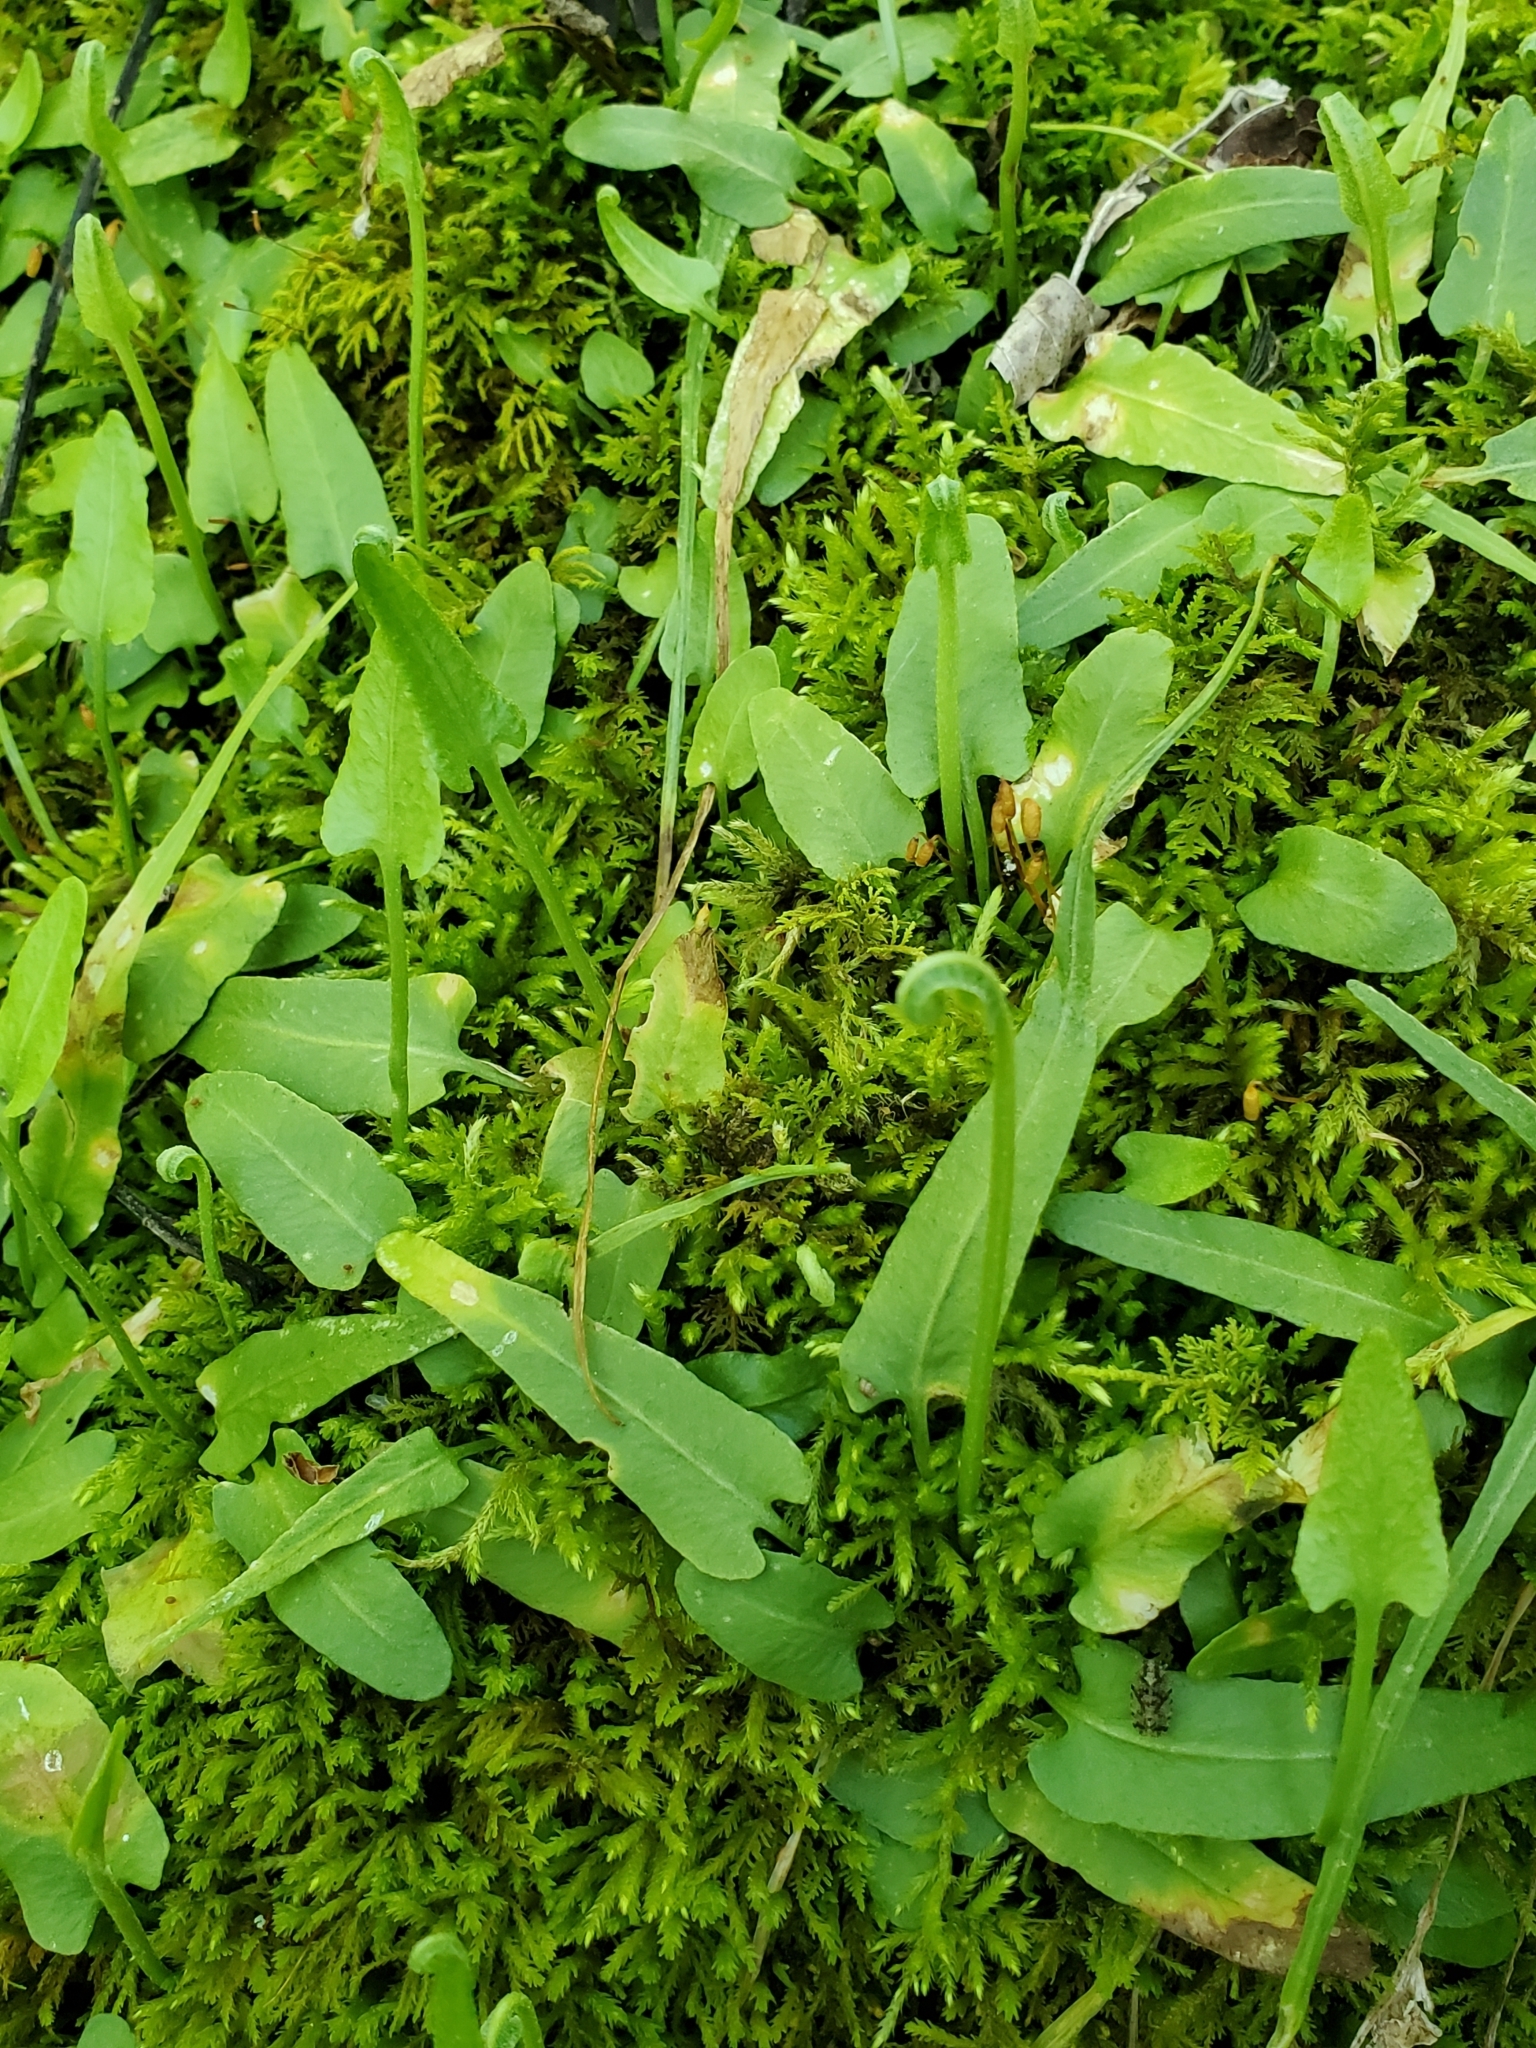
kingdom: Plantae
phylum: Tracheophyta
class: Polypodiopsida
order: Polypodiales
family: Aspleniaceae
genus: Asplenium
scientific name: Asplenium rhizophyllum
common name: Walking fern
